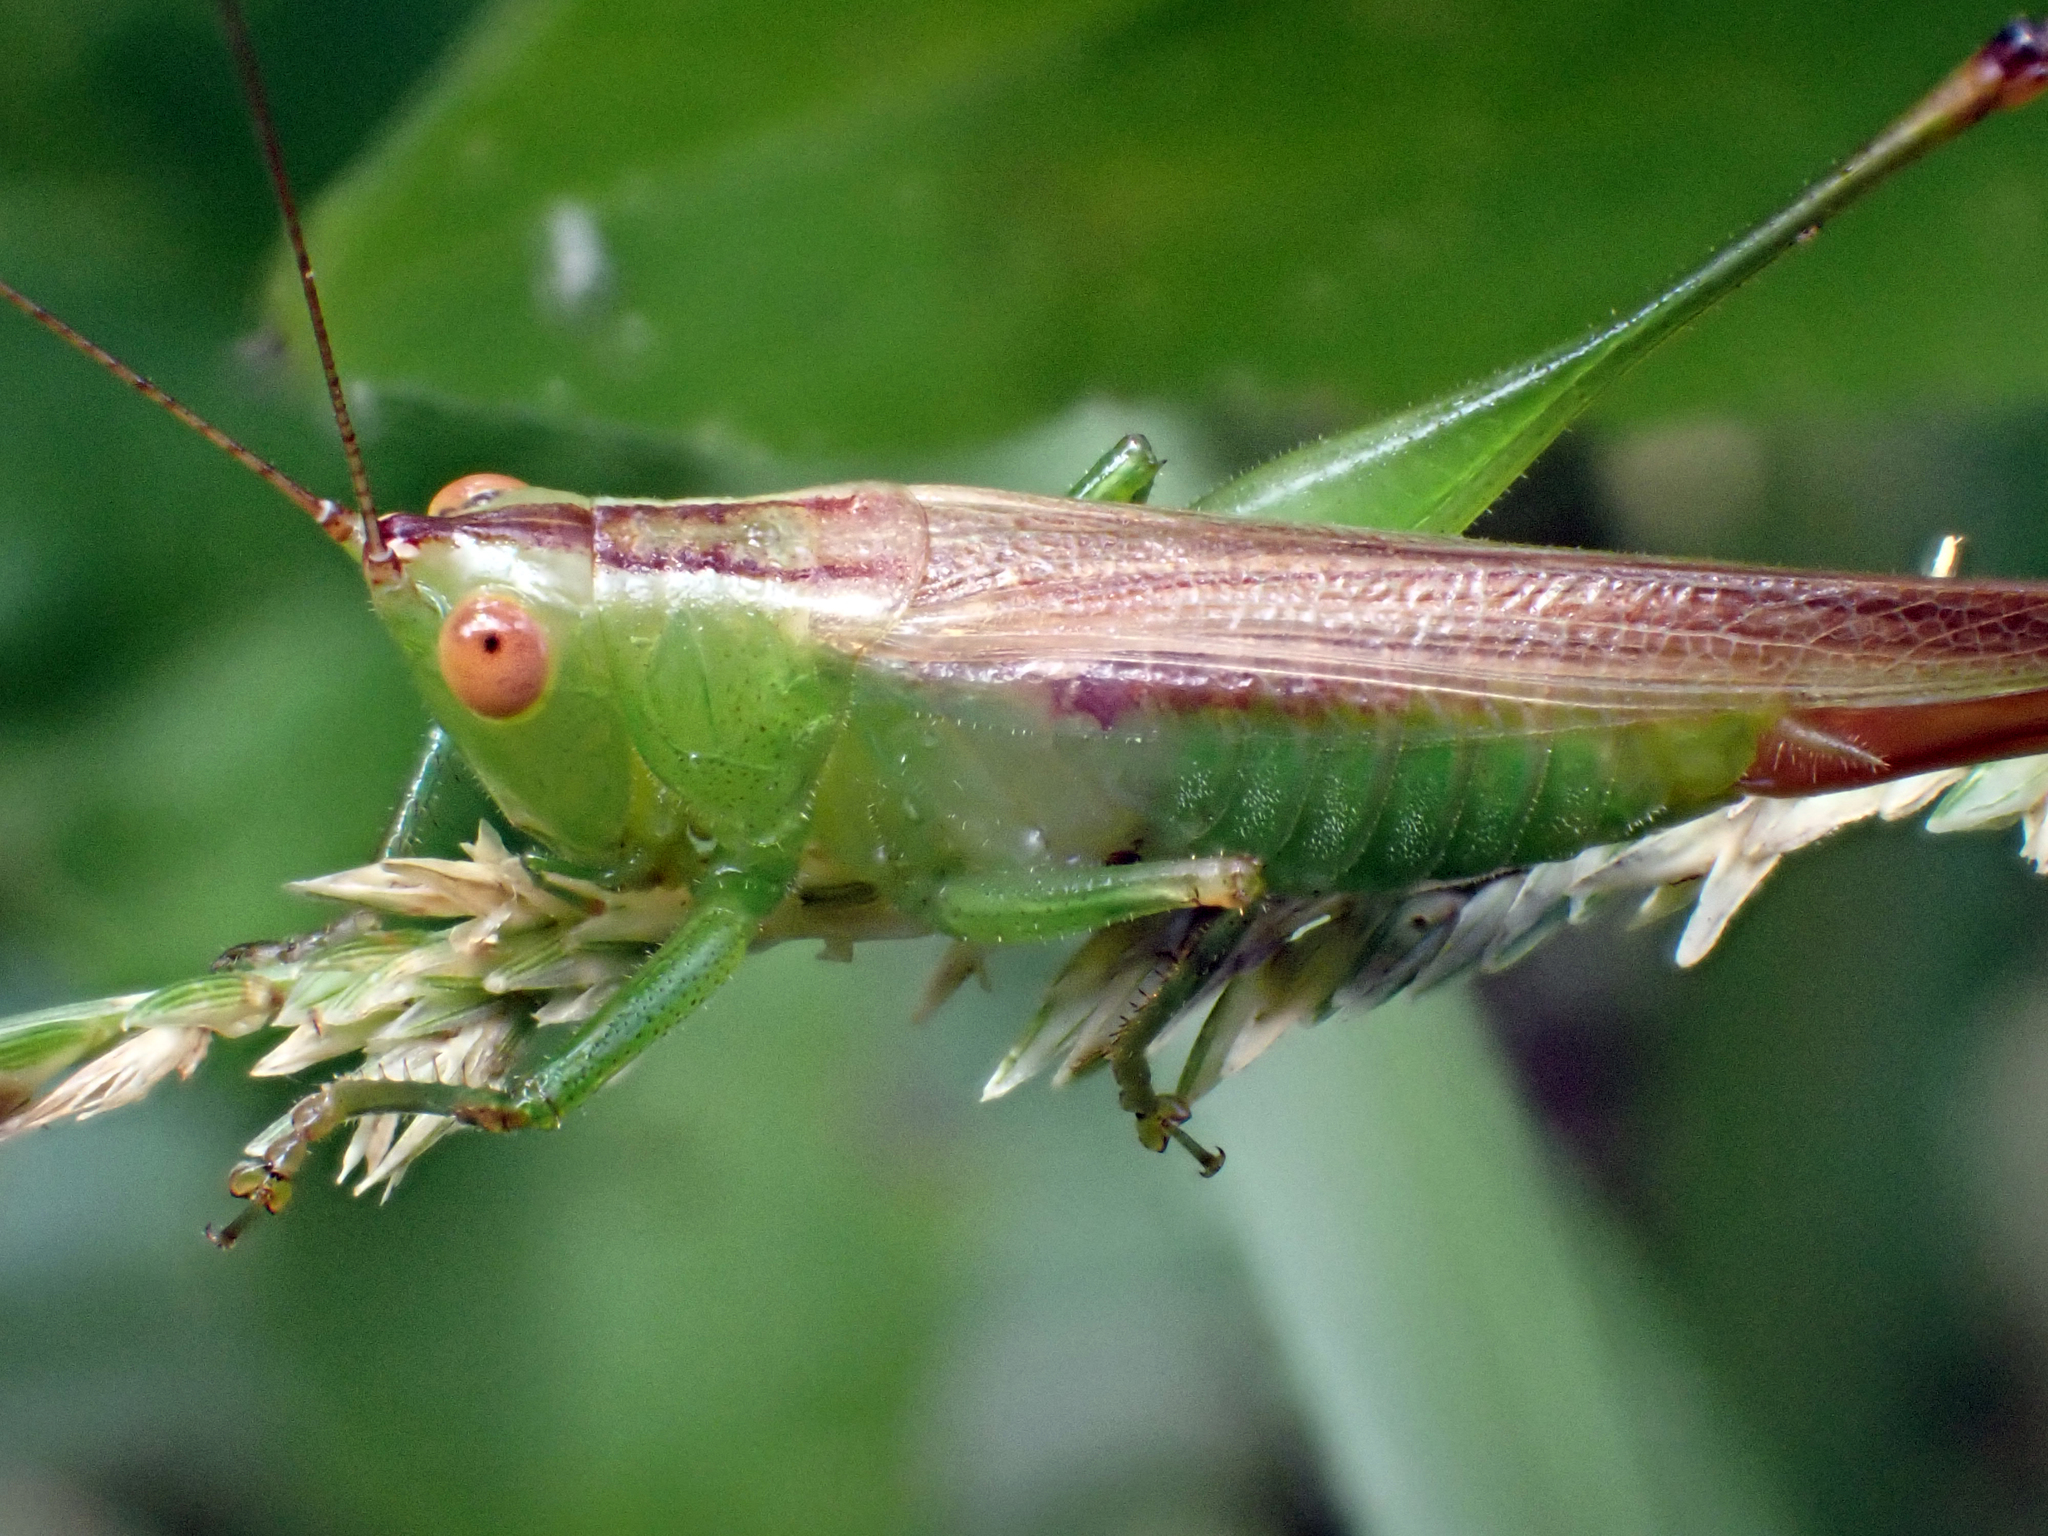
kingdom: Animalia
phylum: Arthropoda
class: Insecta
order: Orthoptera
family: Tettigoniidae
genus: Conocephalus
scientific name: Conocephalus cinereus
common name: Caribbean meadow katydid
